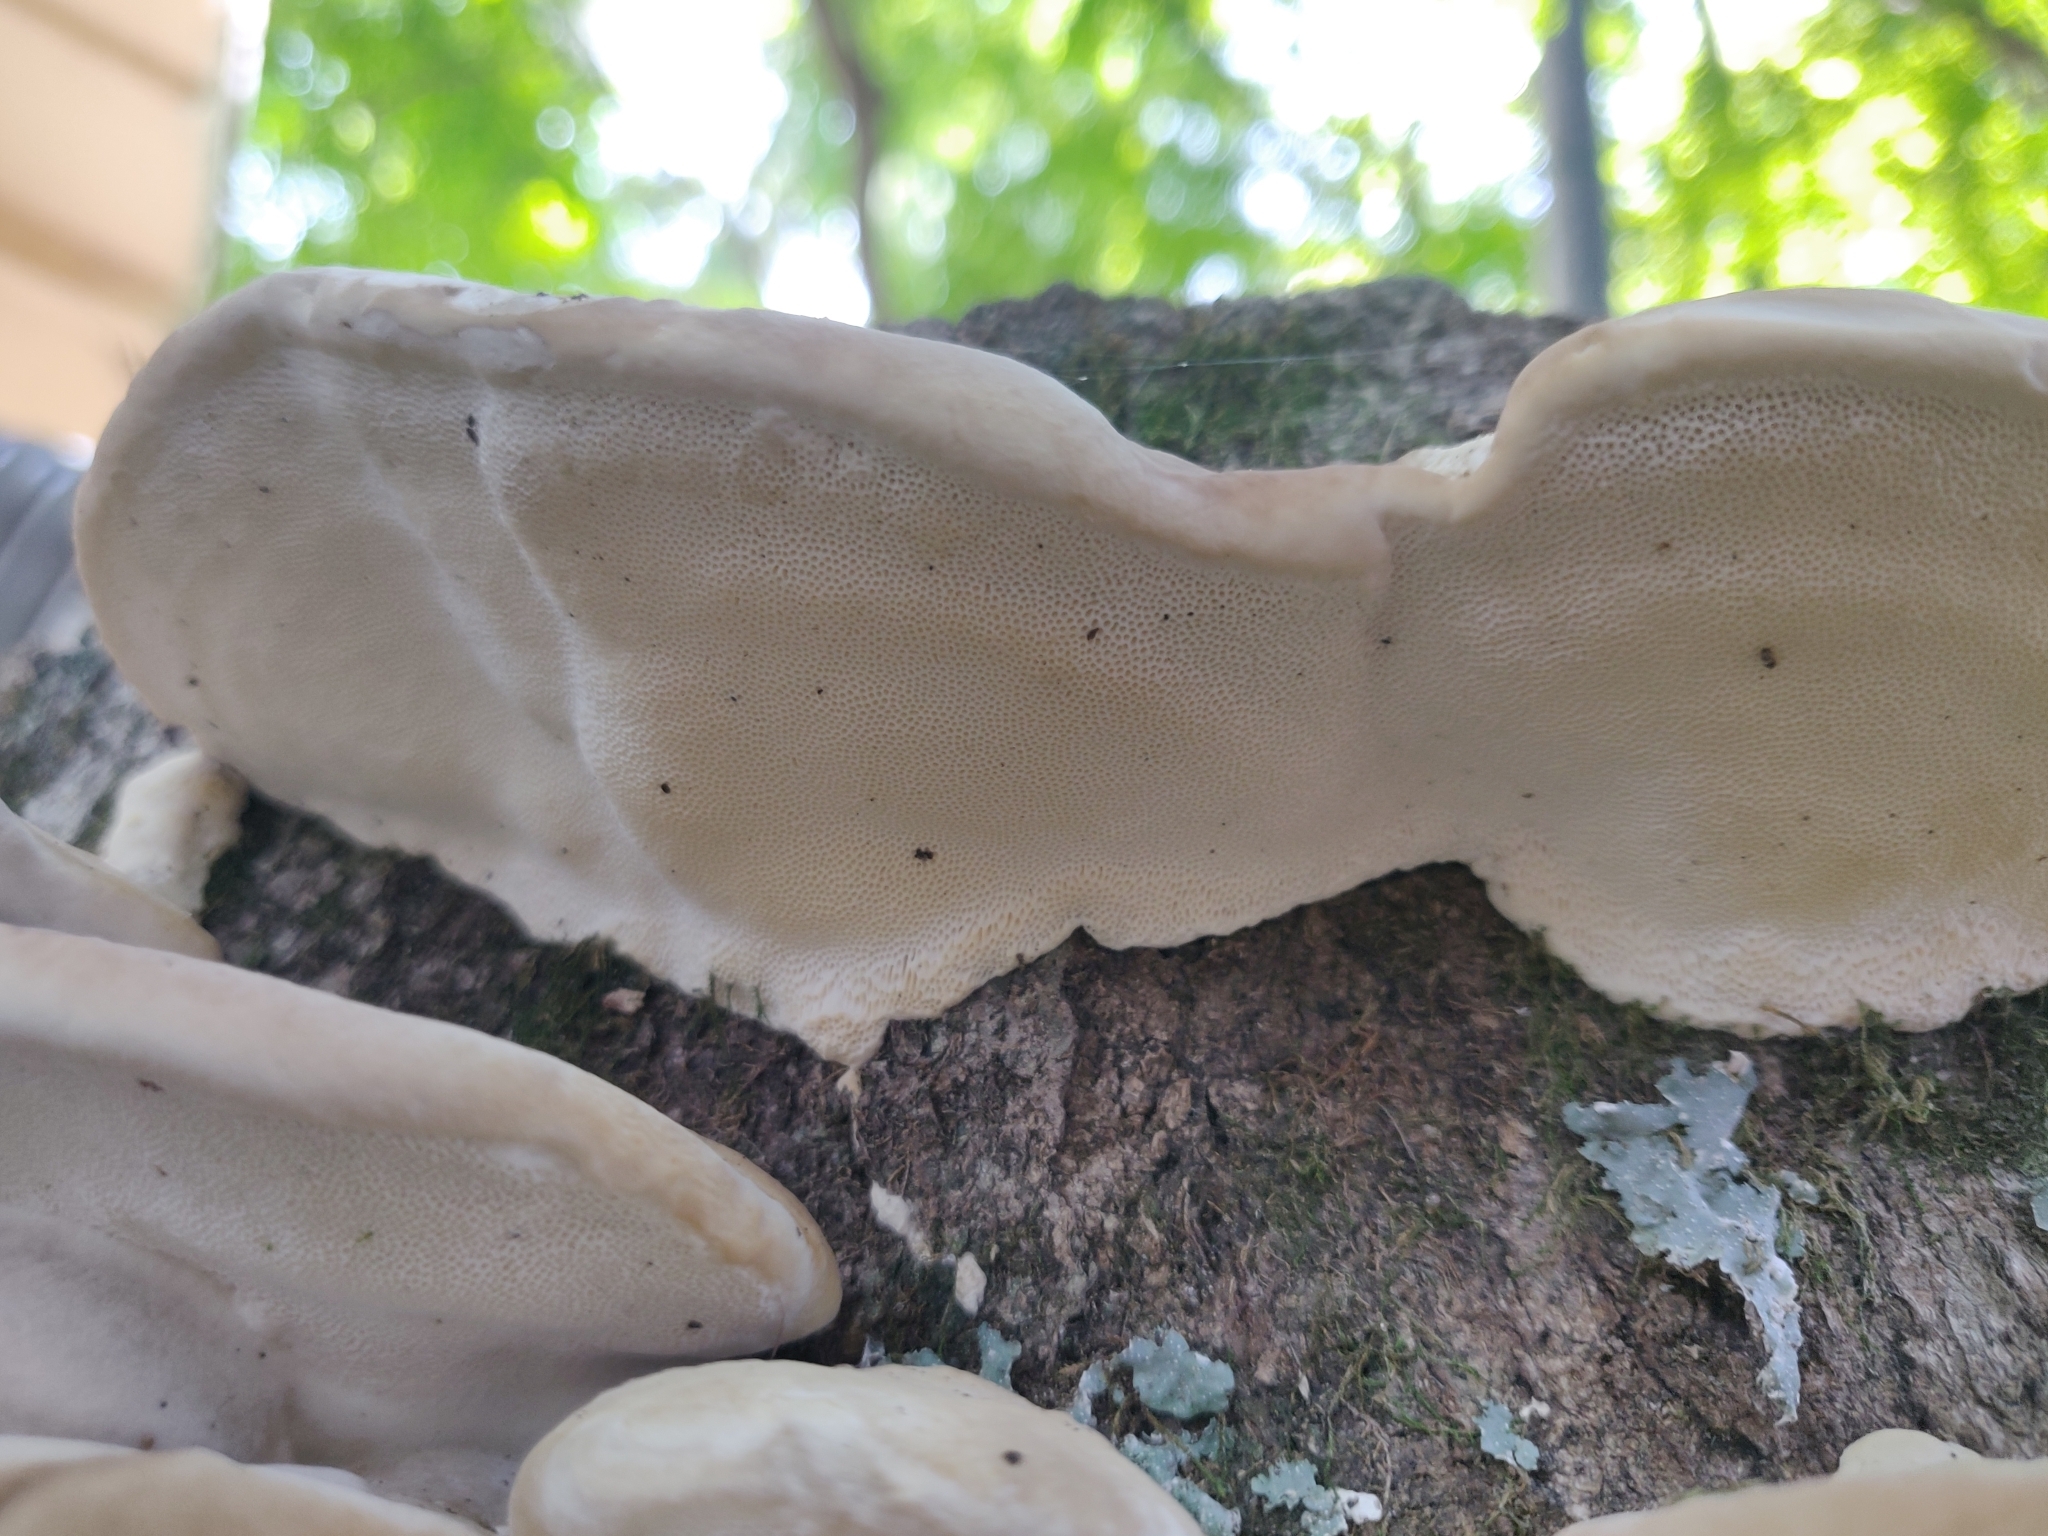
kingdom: Fungi
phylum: Basidiomycota
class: Agaricomycetes
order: Polyporales
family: Polyporaceae
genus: Trametes
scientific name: Trametes orientalis
